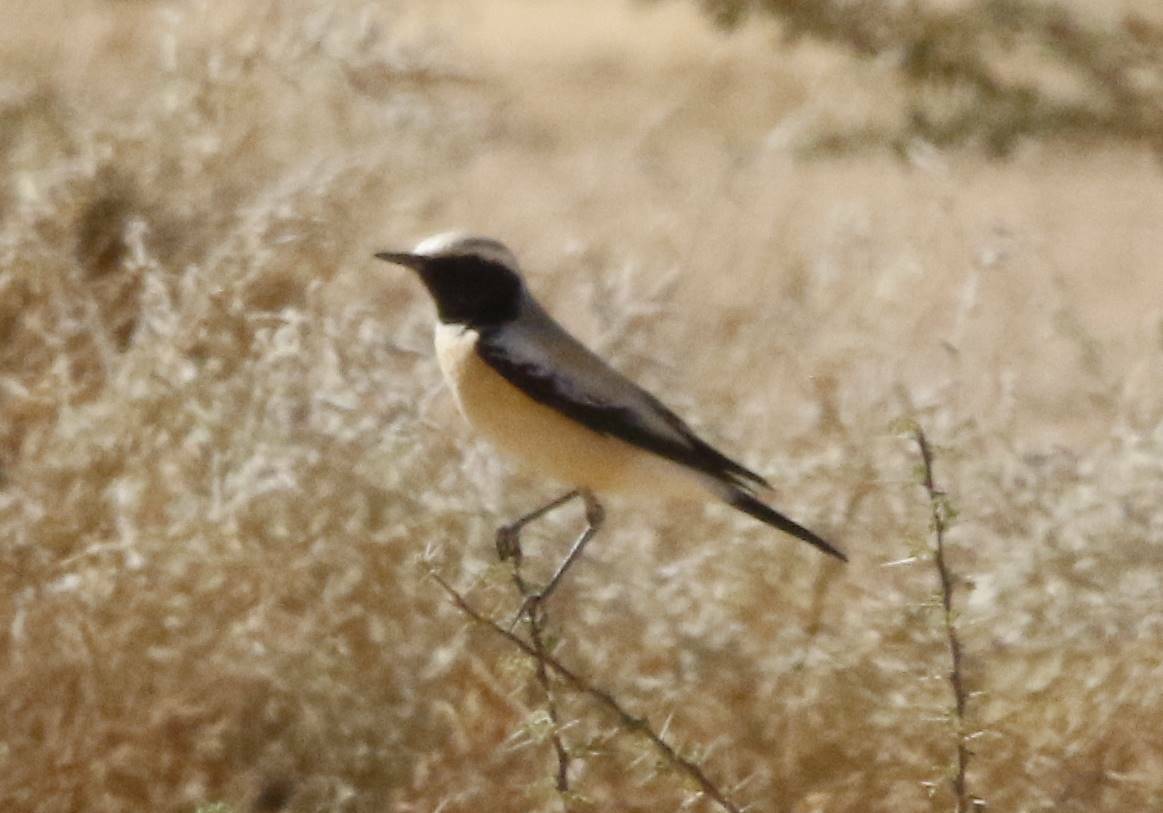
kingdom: Animalia
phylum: Chordata
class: Aves
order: Passeriformes
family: Muscicapidae
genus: Oenanthe
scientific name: Oenanthe deserti
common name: Desert wheatear
